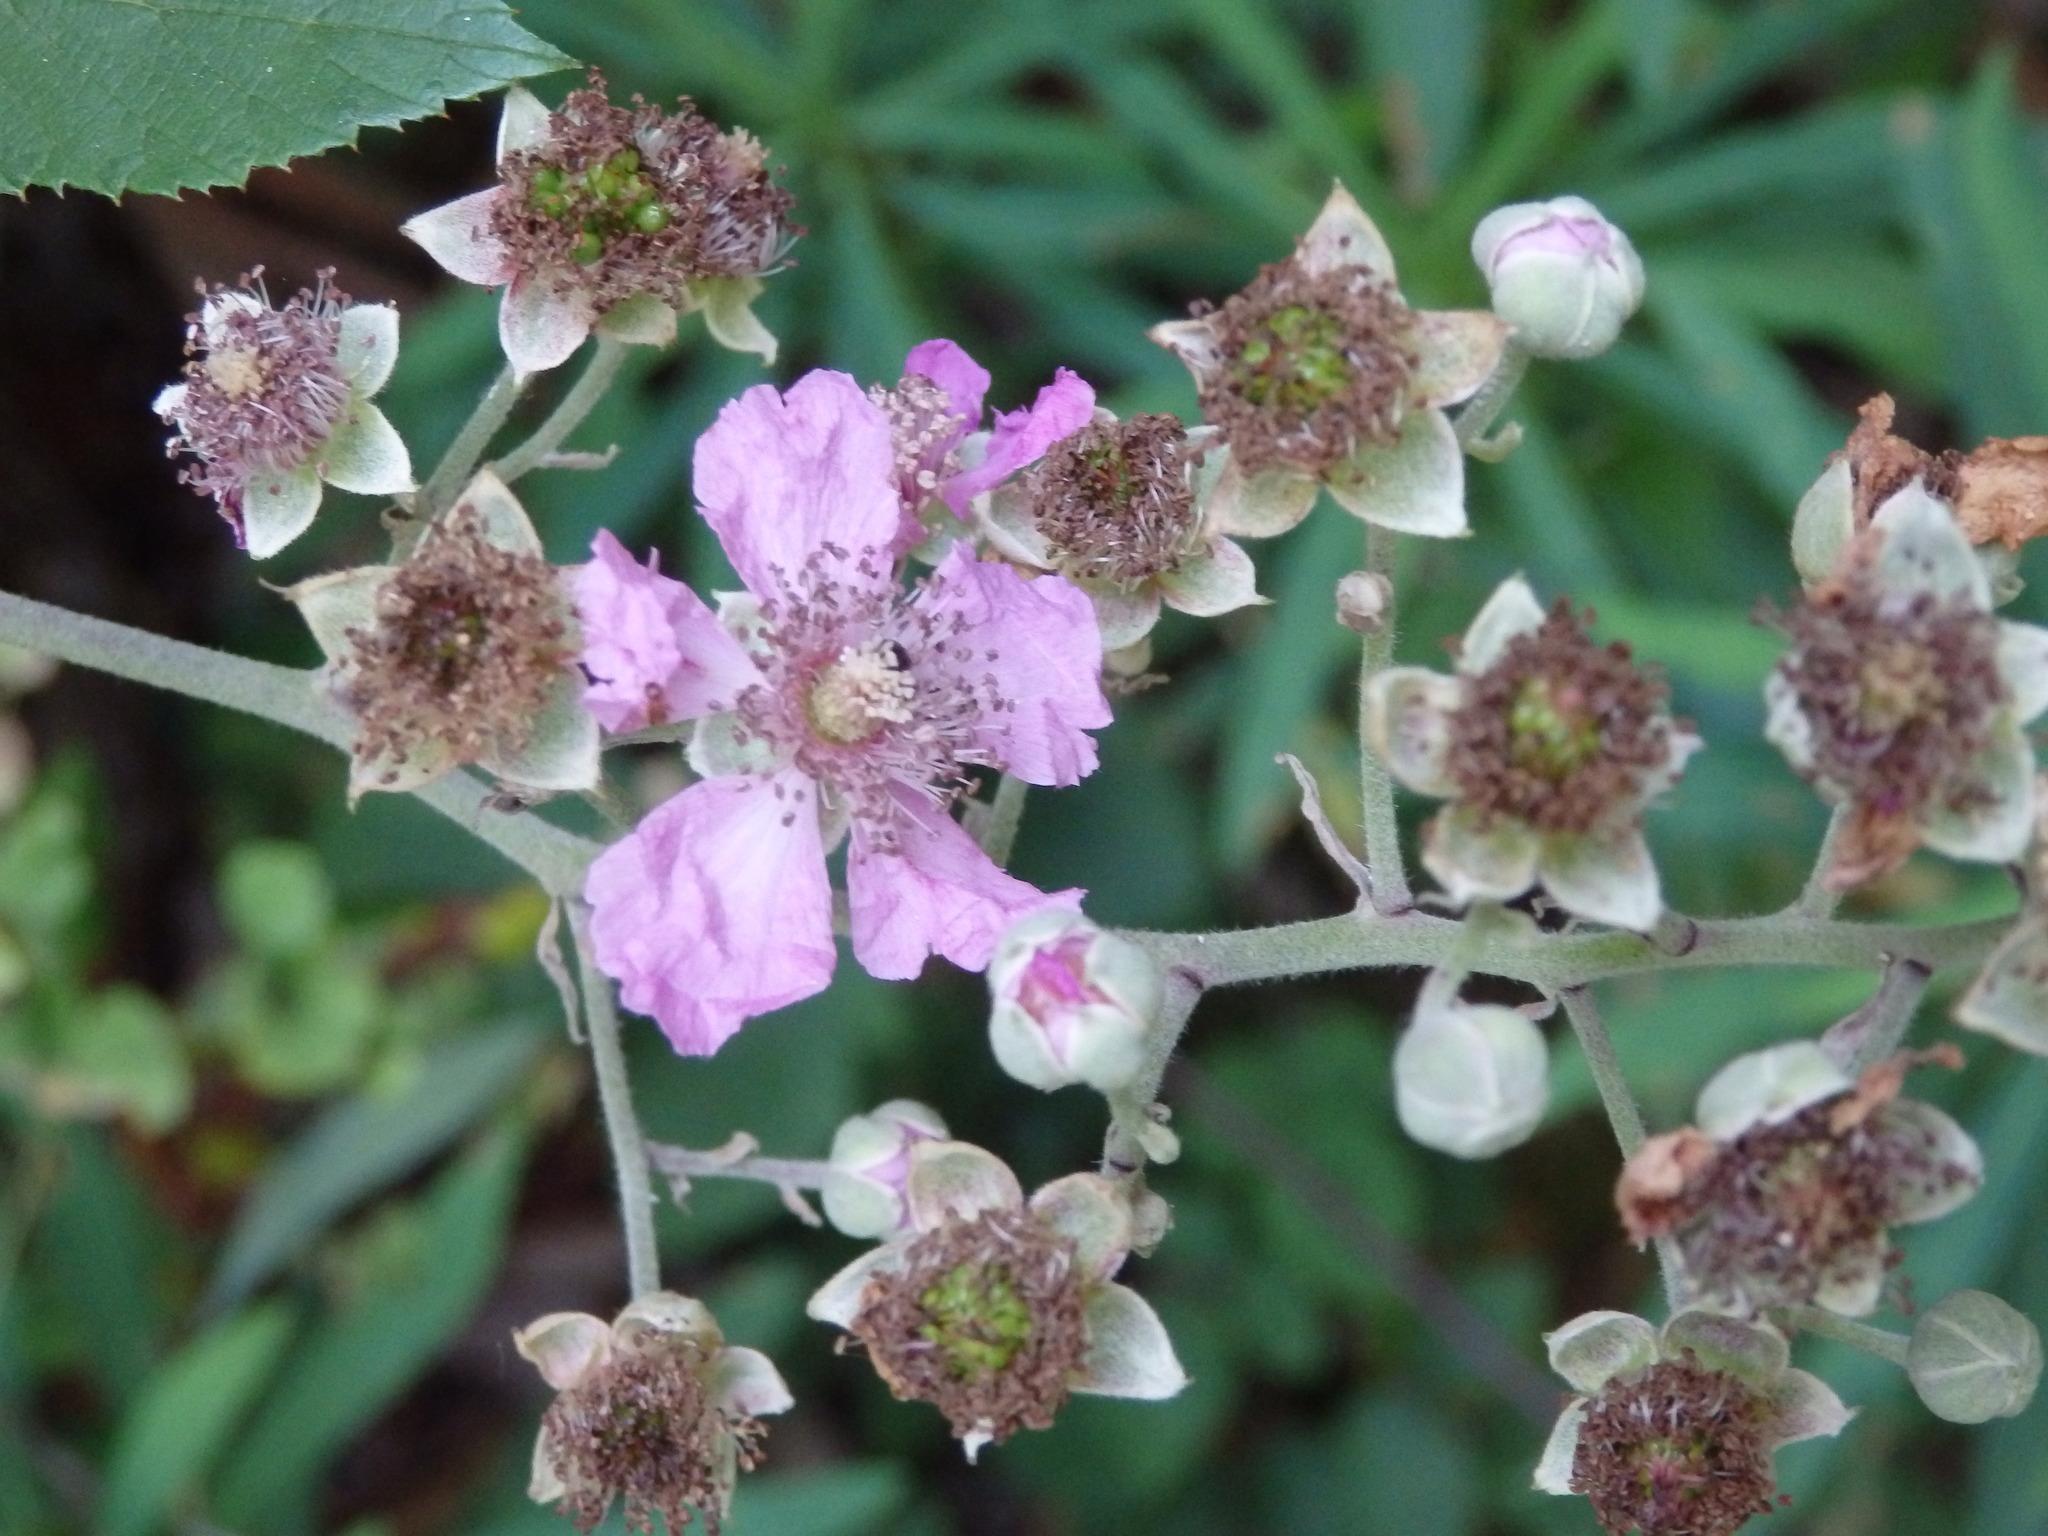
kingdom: Plantae
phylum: Tracheophyta
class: Magnoliopsida
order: Rosales
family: Rosaceae
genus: Rubus
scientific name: Rubus ulmifolius
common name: Elmleaf blackberry
